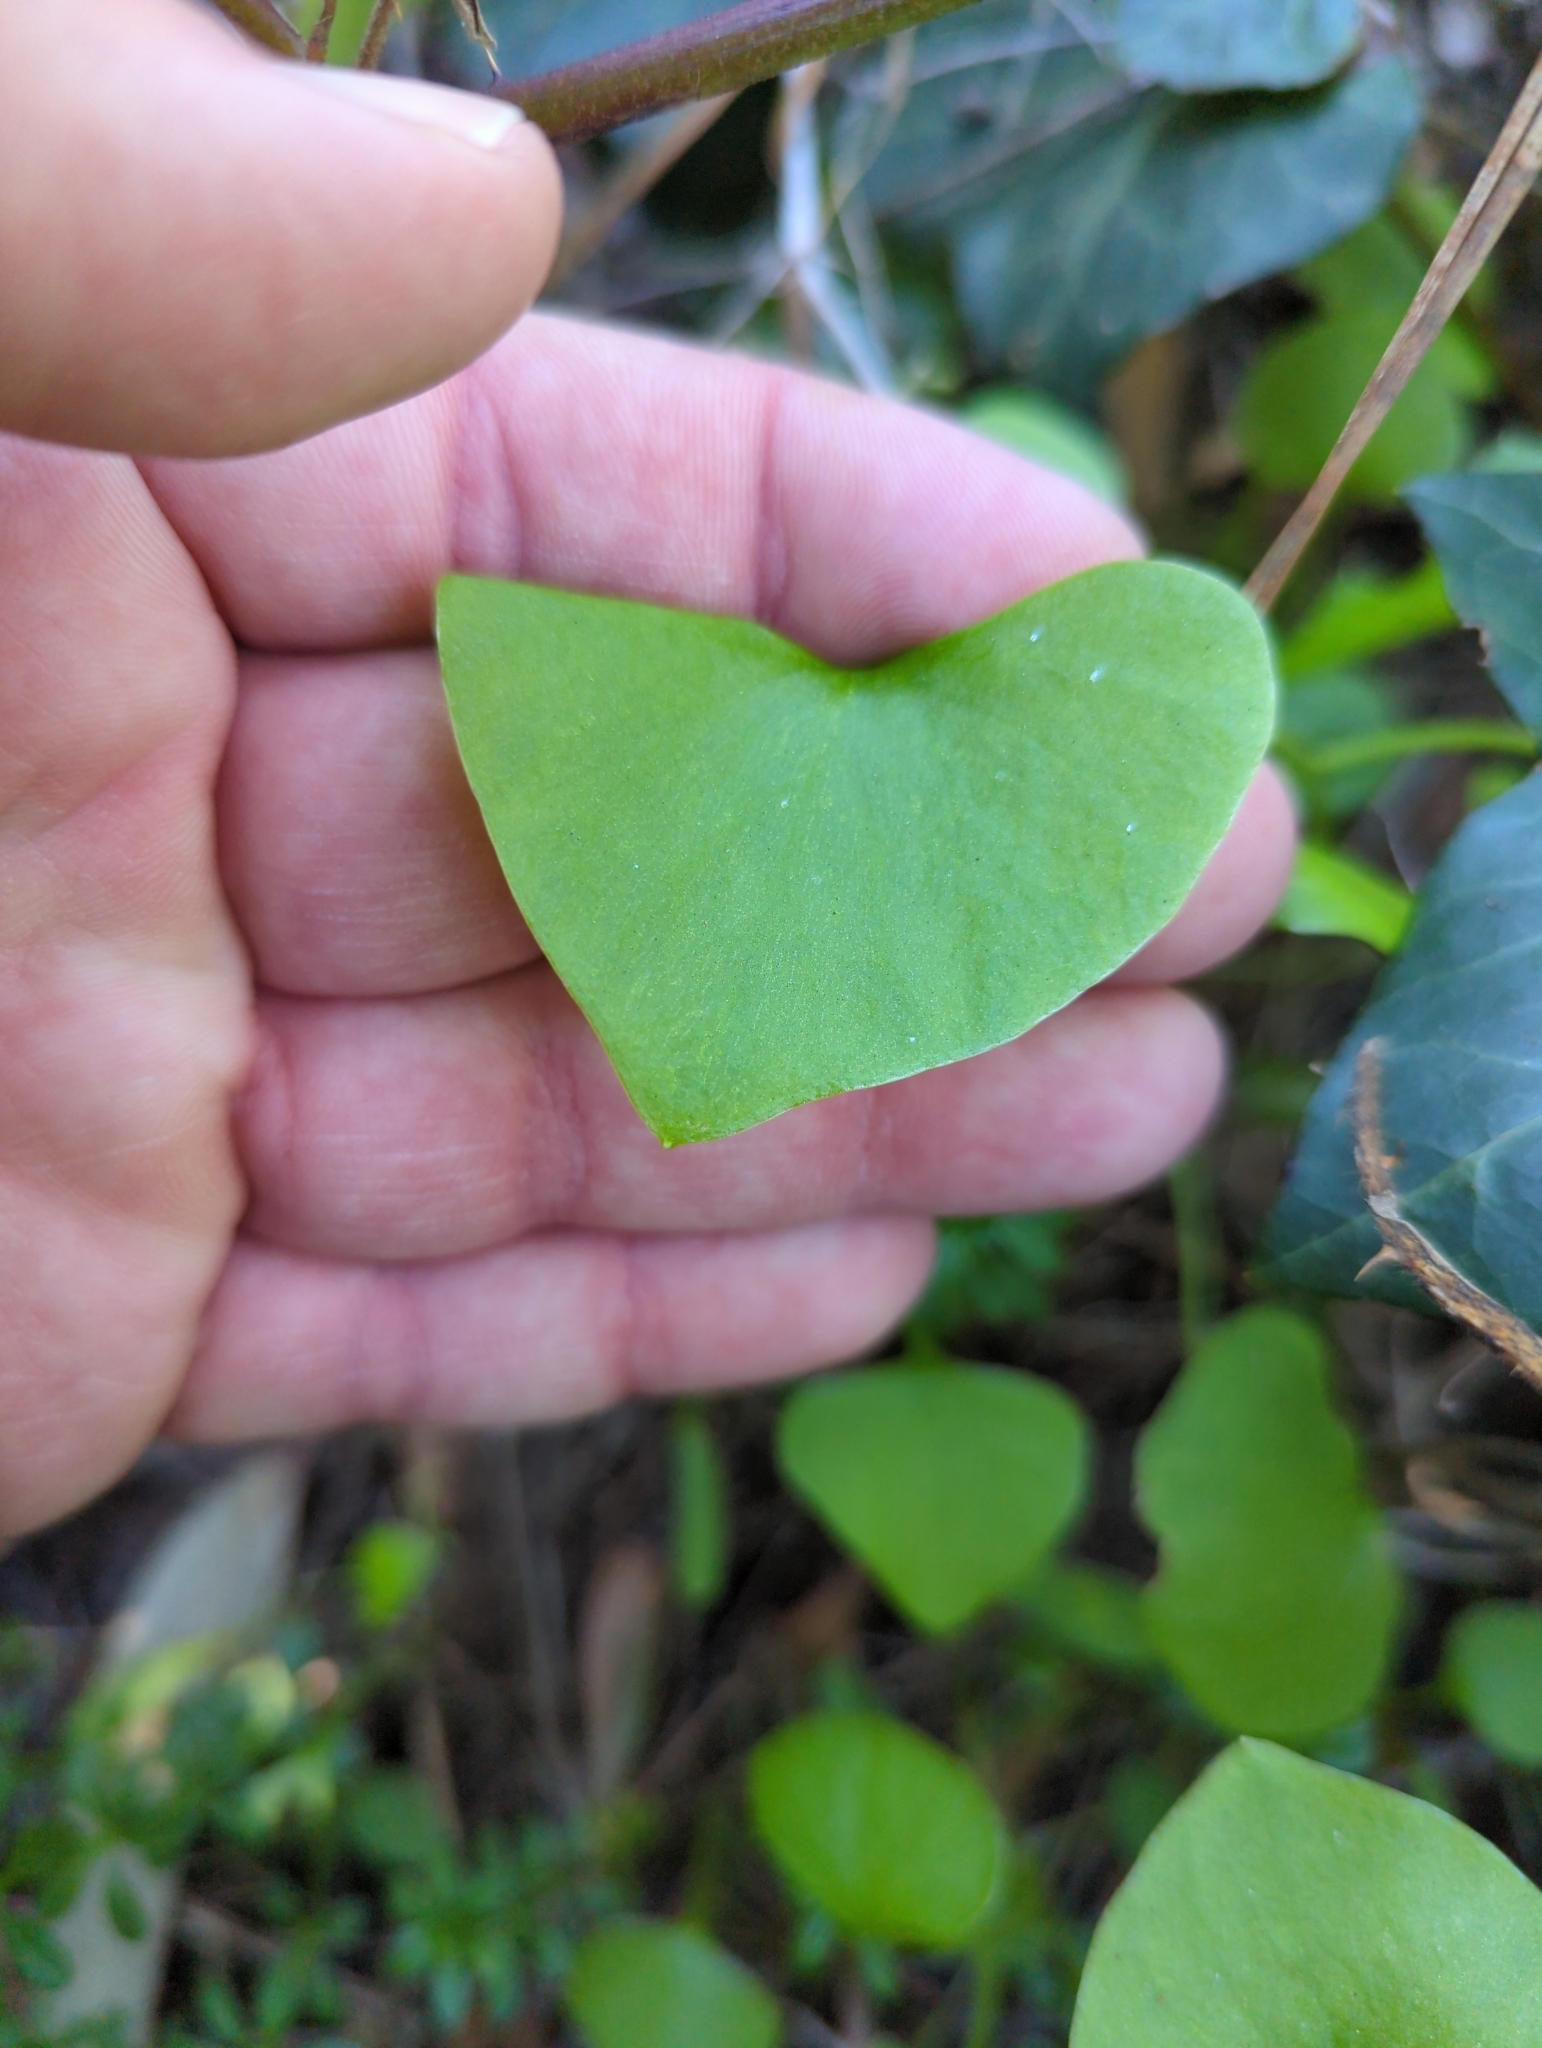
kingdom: Plantae
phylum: Tracheophyta
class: Magnoliopsida
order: Caryophyllales
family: Montiaceae
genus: Claytonia
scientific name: Claytonia perfoliata
